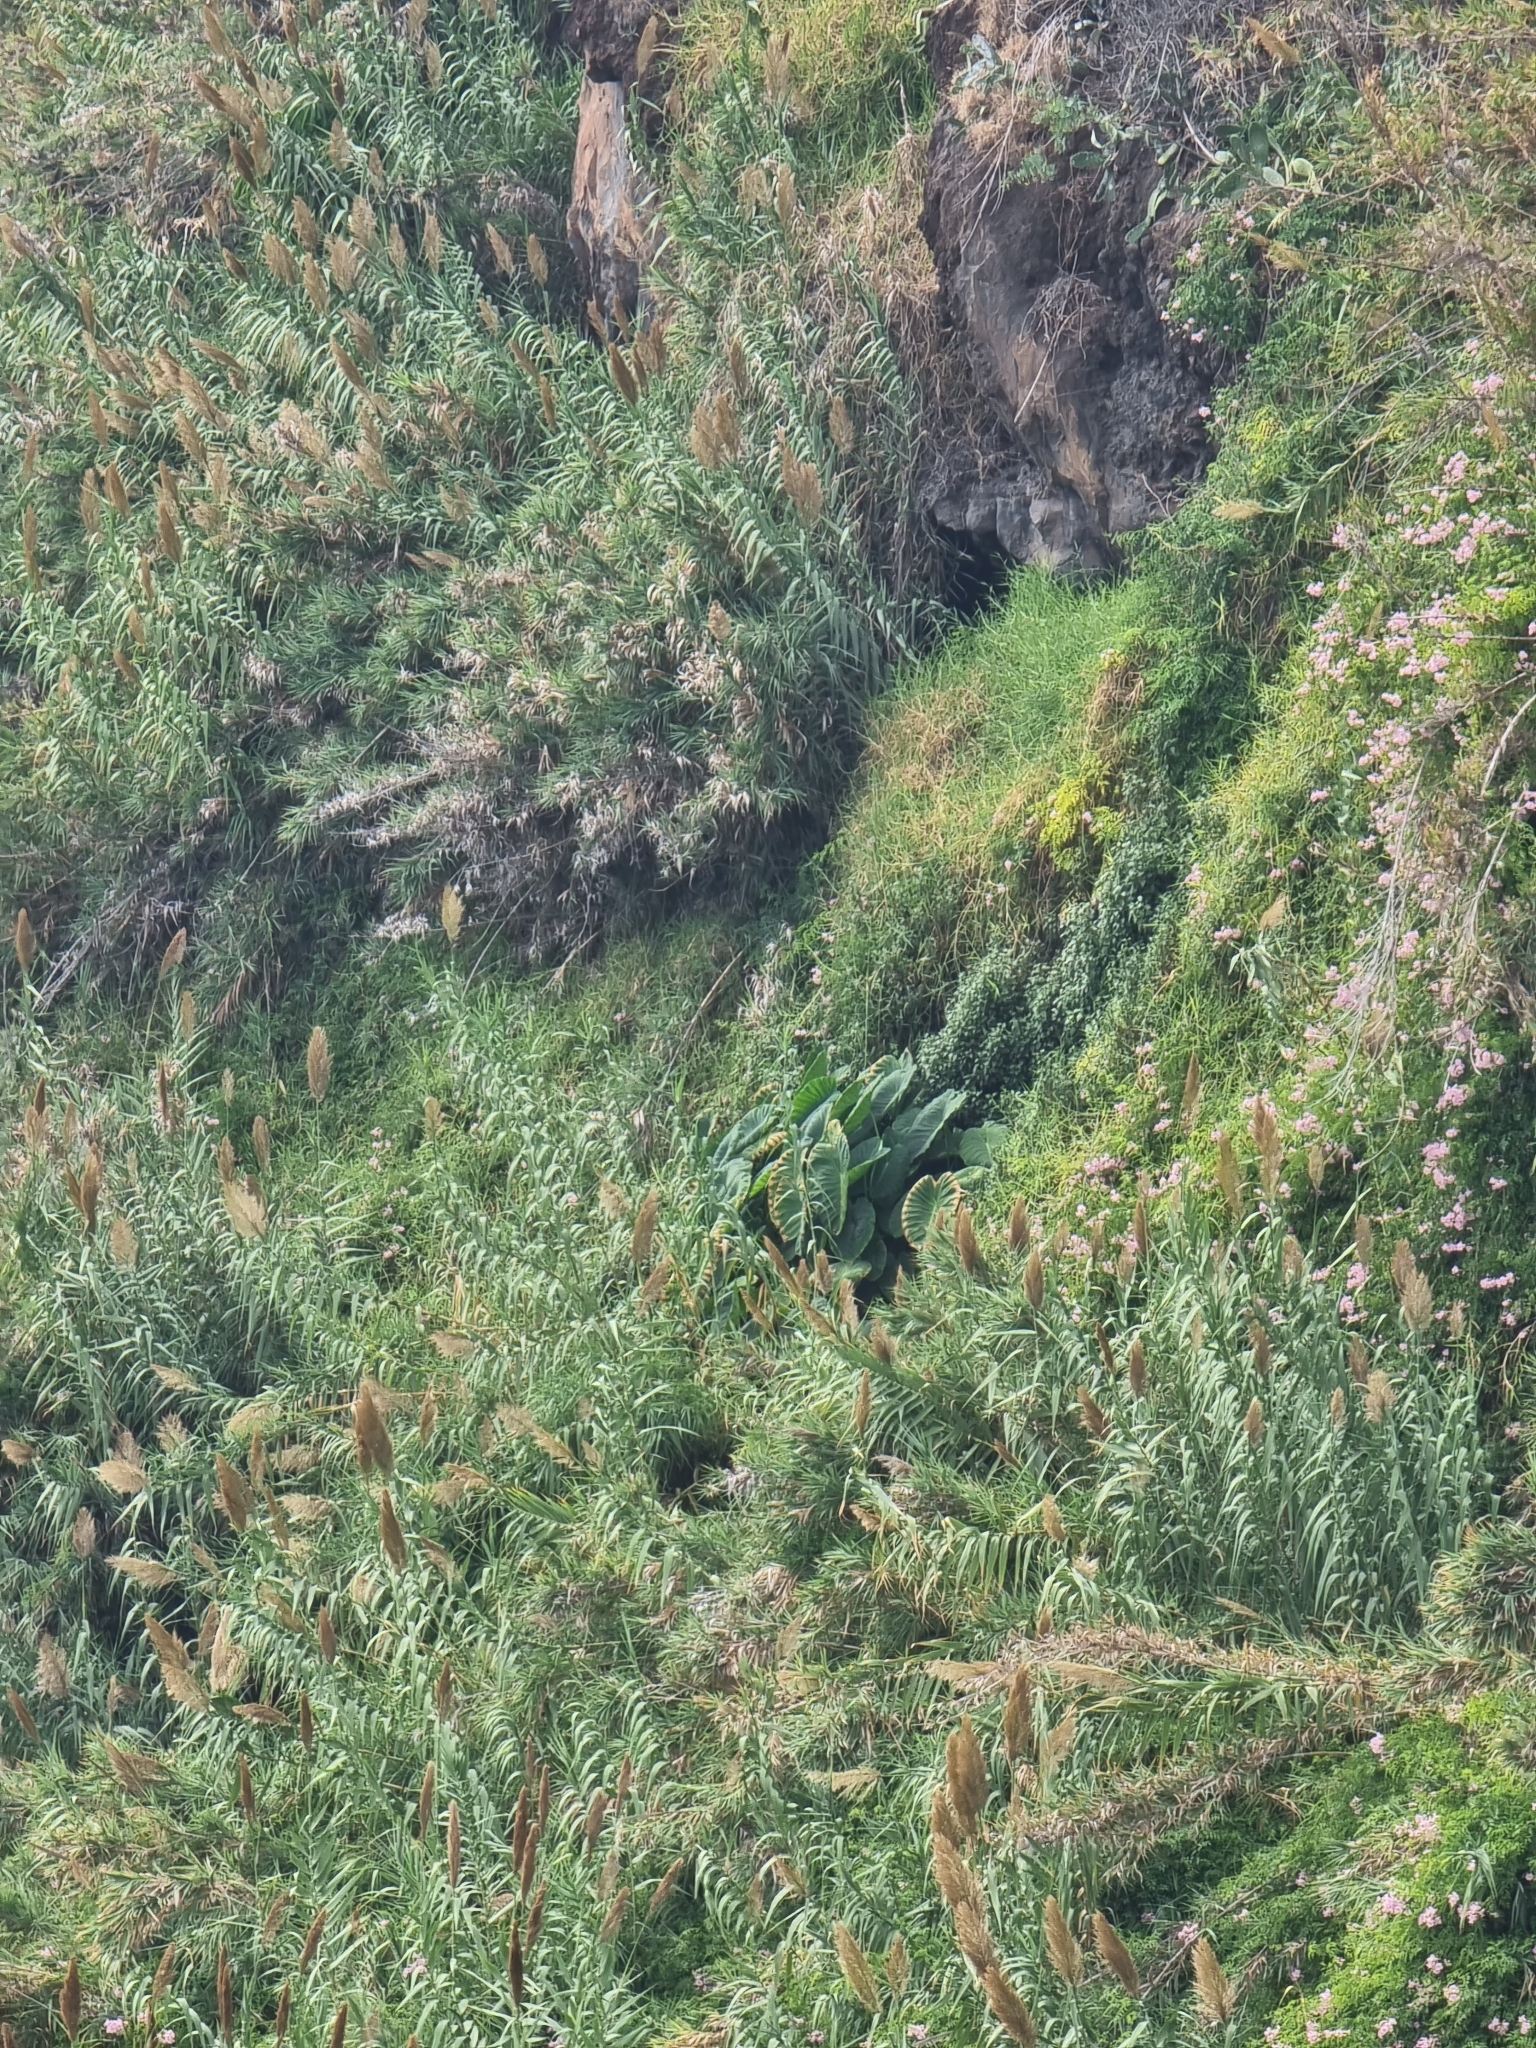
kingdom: Plantae
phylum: Tracheophyta
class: Liliopsida
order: Alismatales
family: Araceae
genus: Colocasia
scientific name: Colocasia esculenta
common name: Taro
